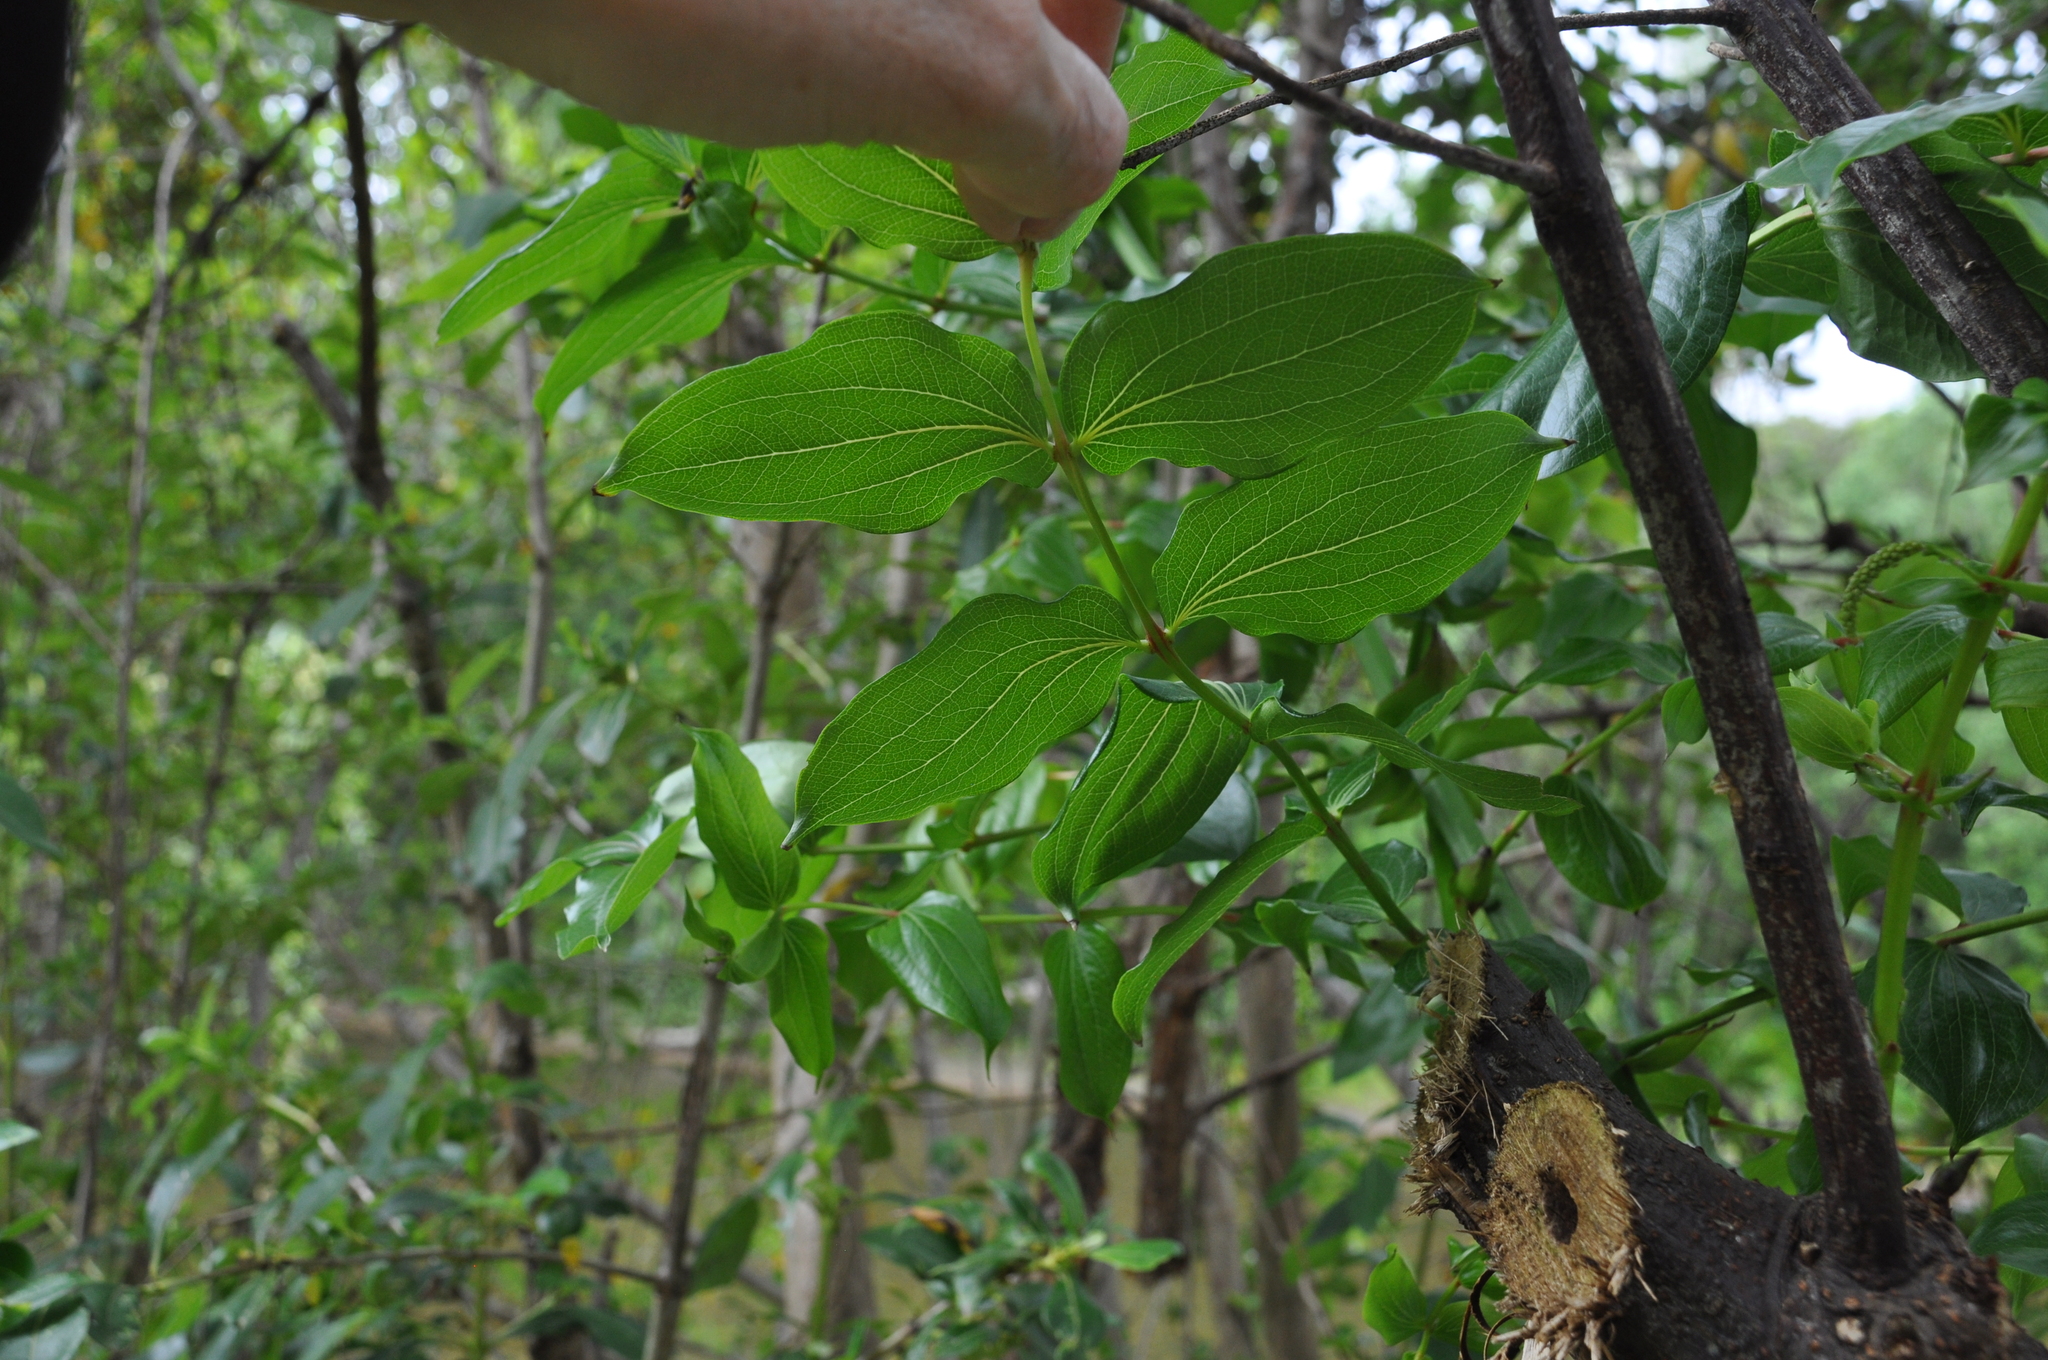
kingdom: Plantae
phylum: Tracheophyta
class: Magnoliopsida
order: Cucurbitales
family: Coriariaceae
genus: Coriaria
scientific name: Coriaria arborea
